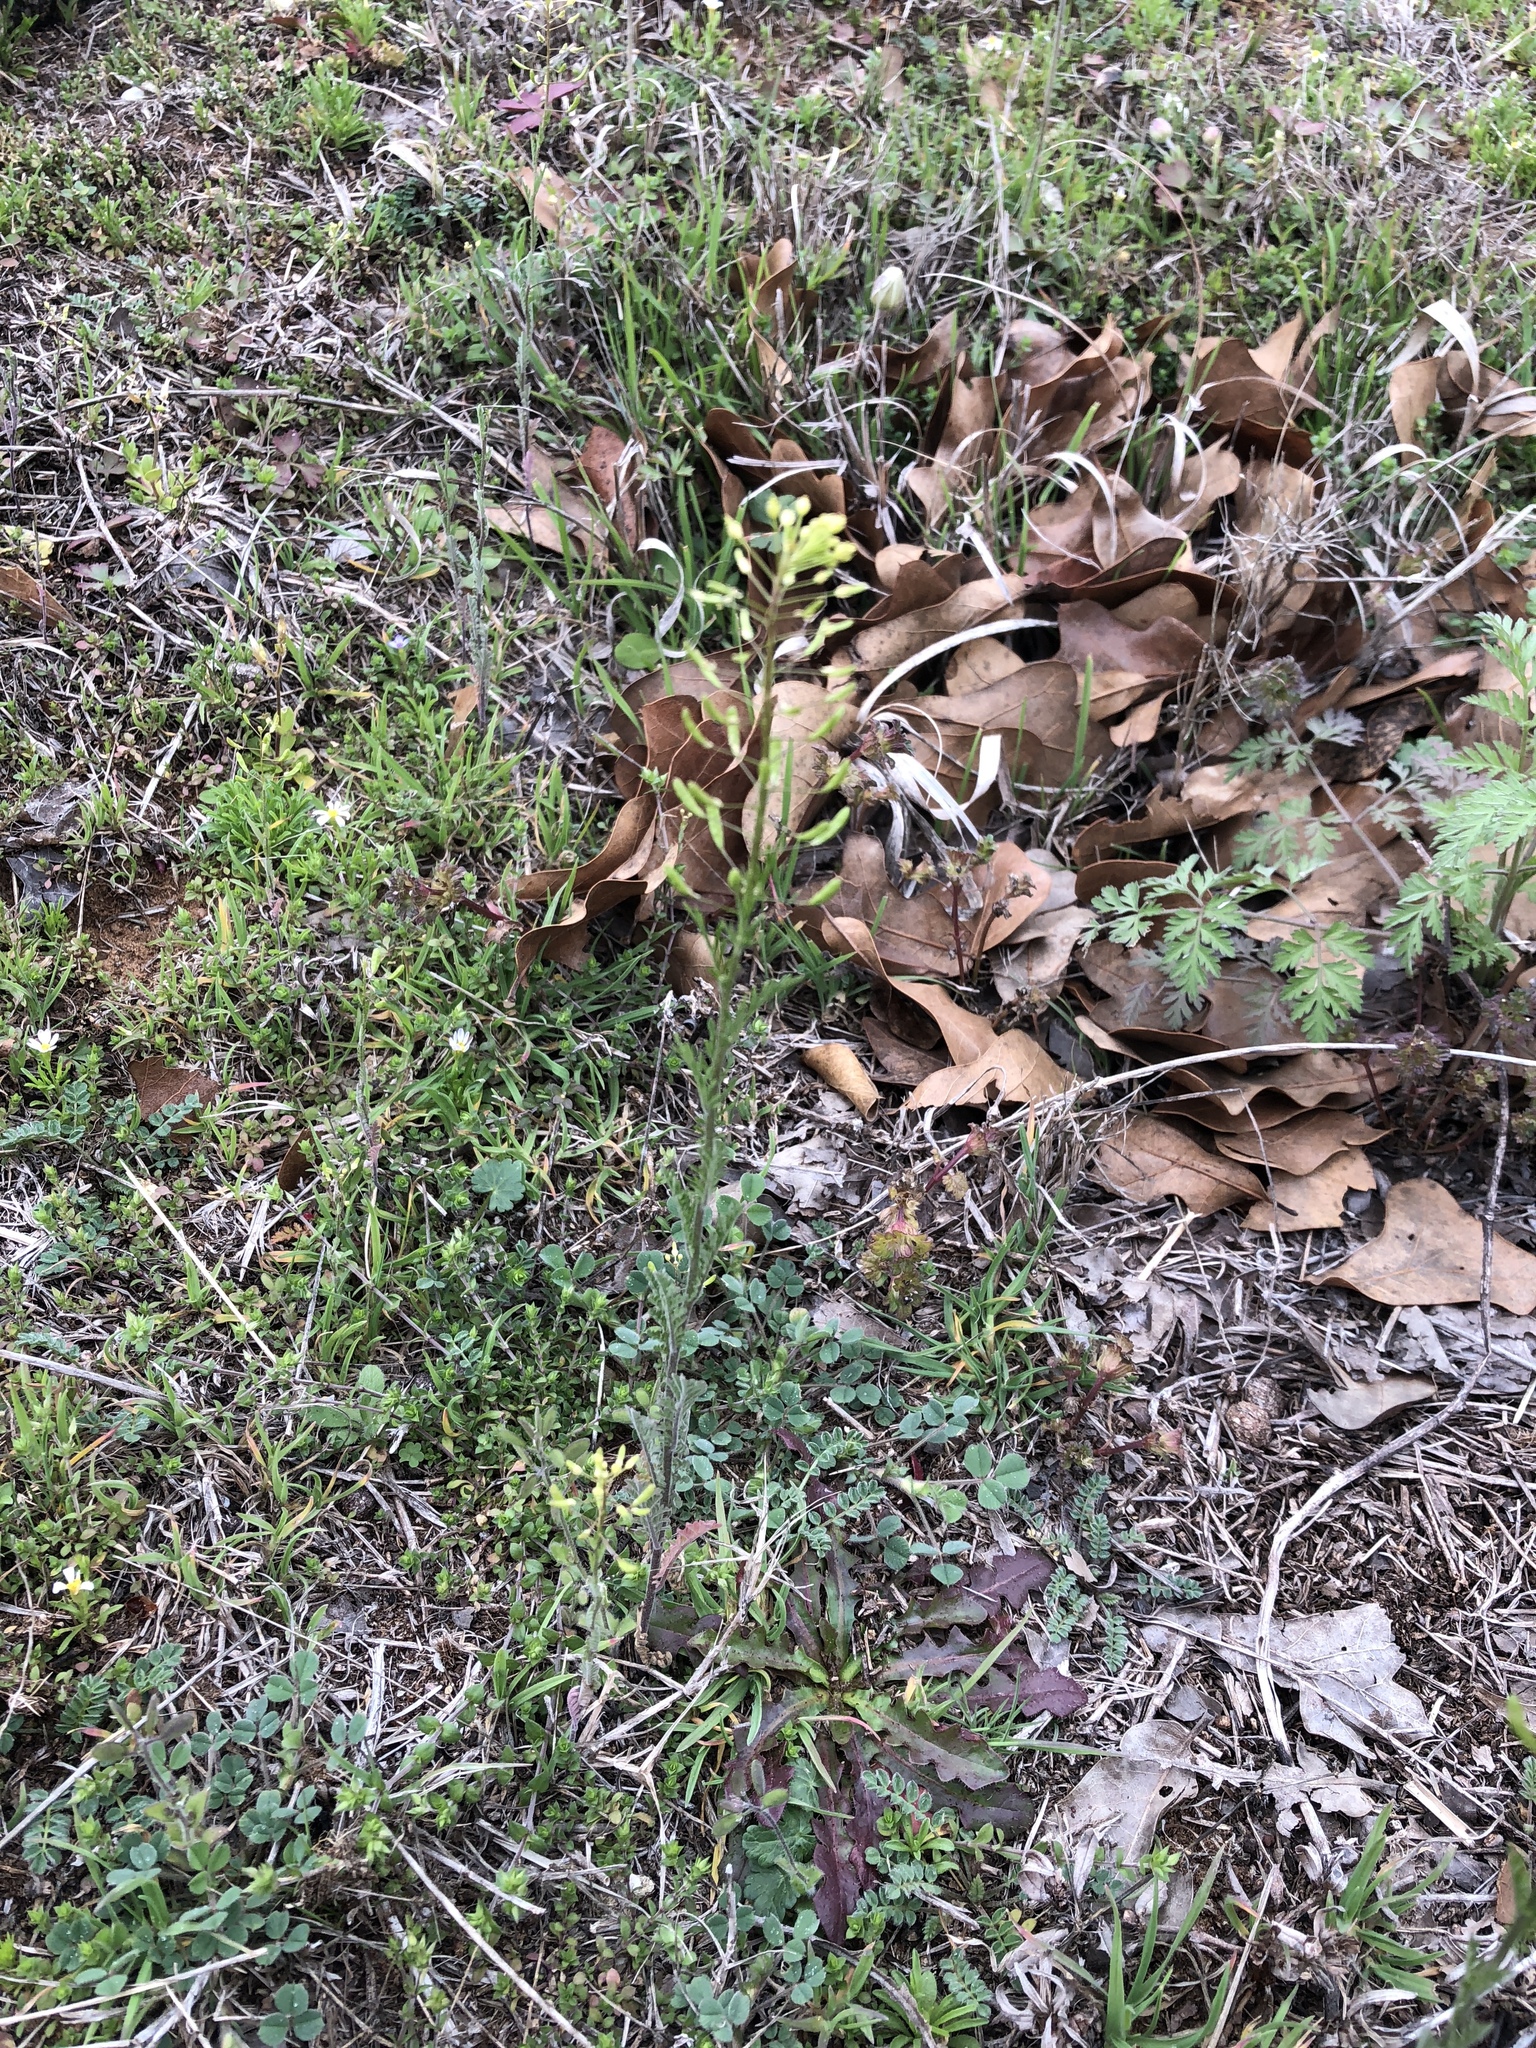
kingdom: Plantae
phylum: Tracheophyta
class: Magnoliopsida
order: Brassicales
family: Brassicaceae
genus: Descurainia
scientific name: Descurainia pinnata
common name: Western tansy mustard
